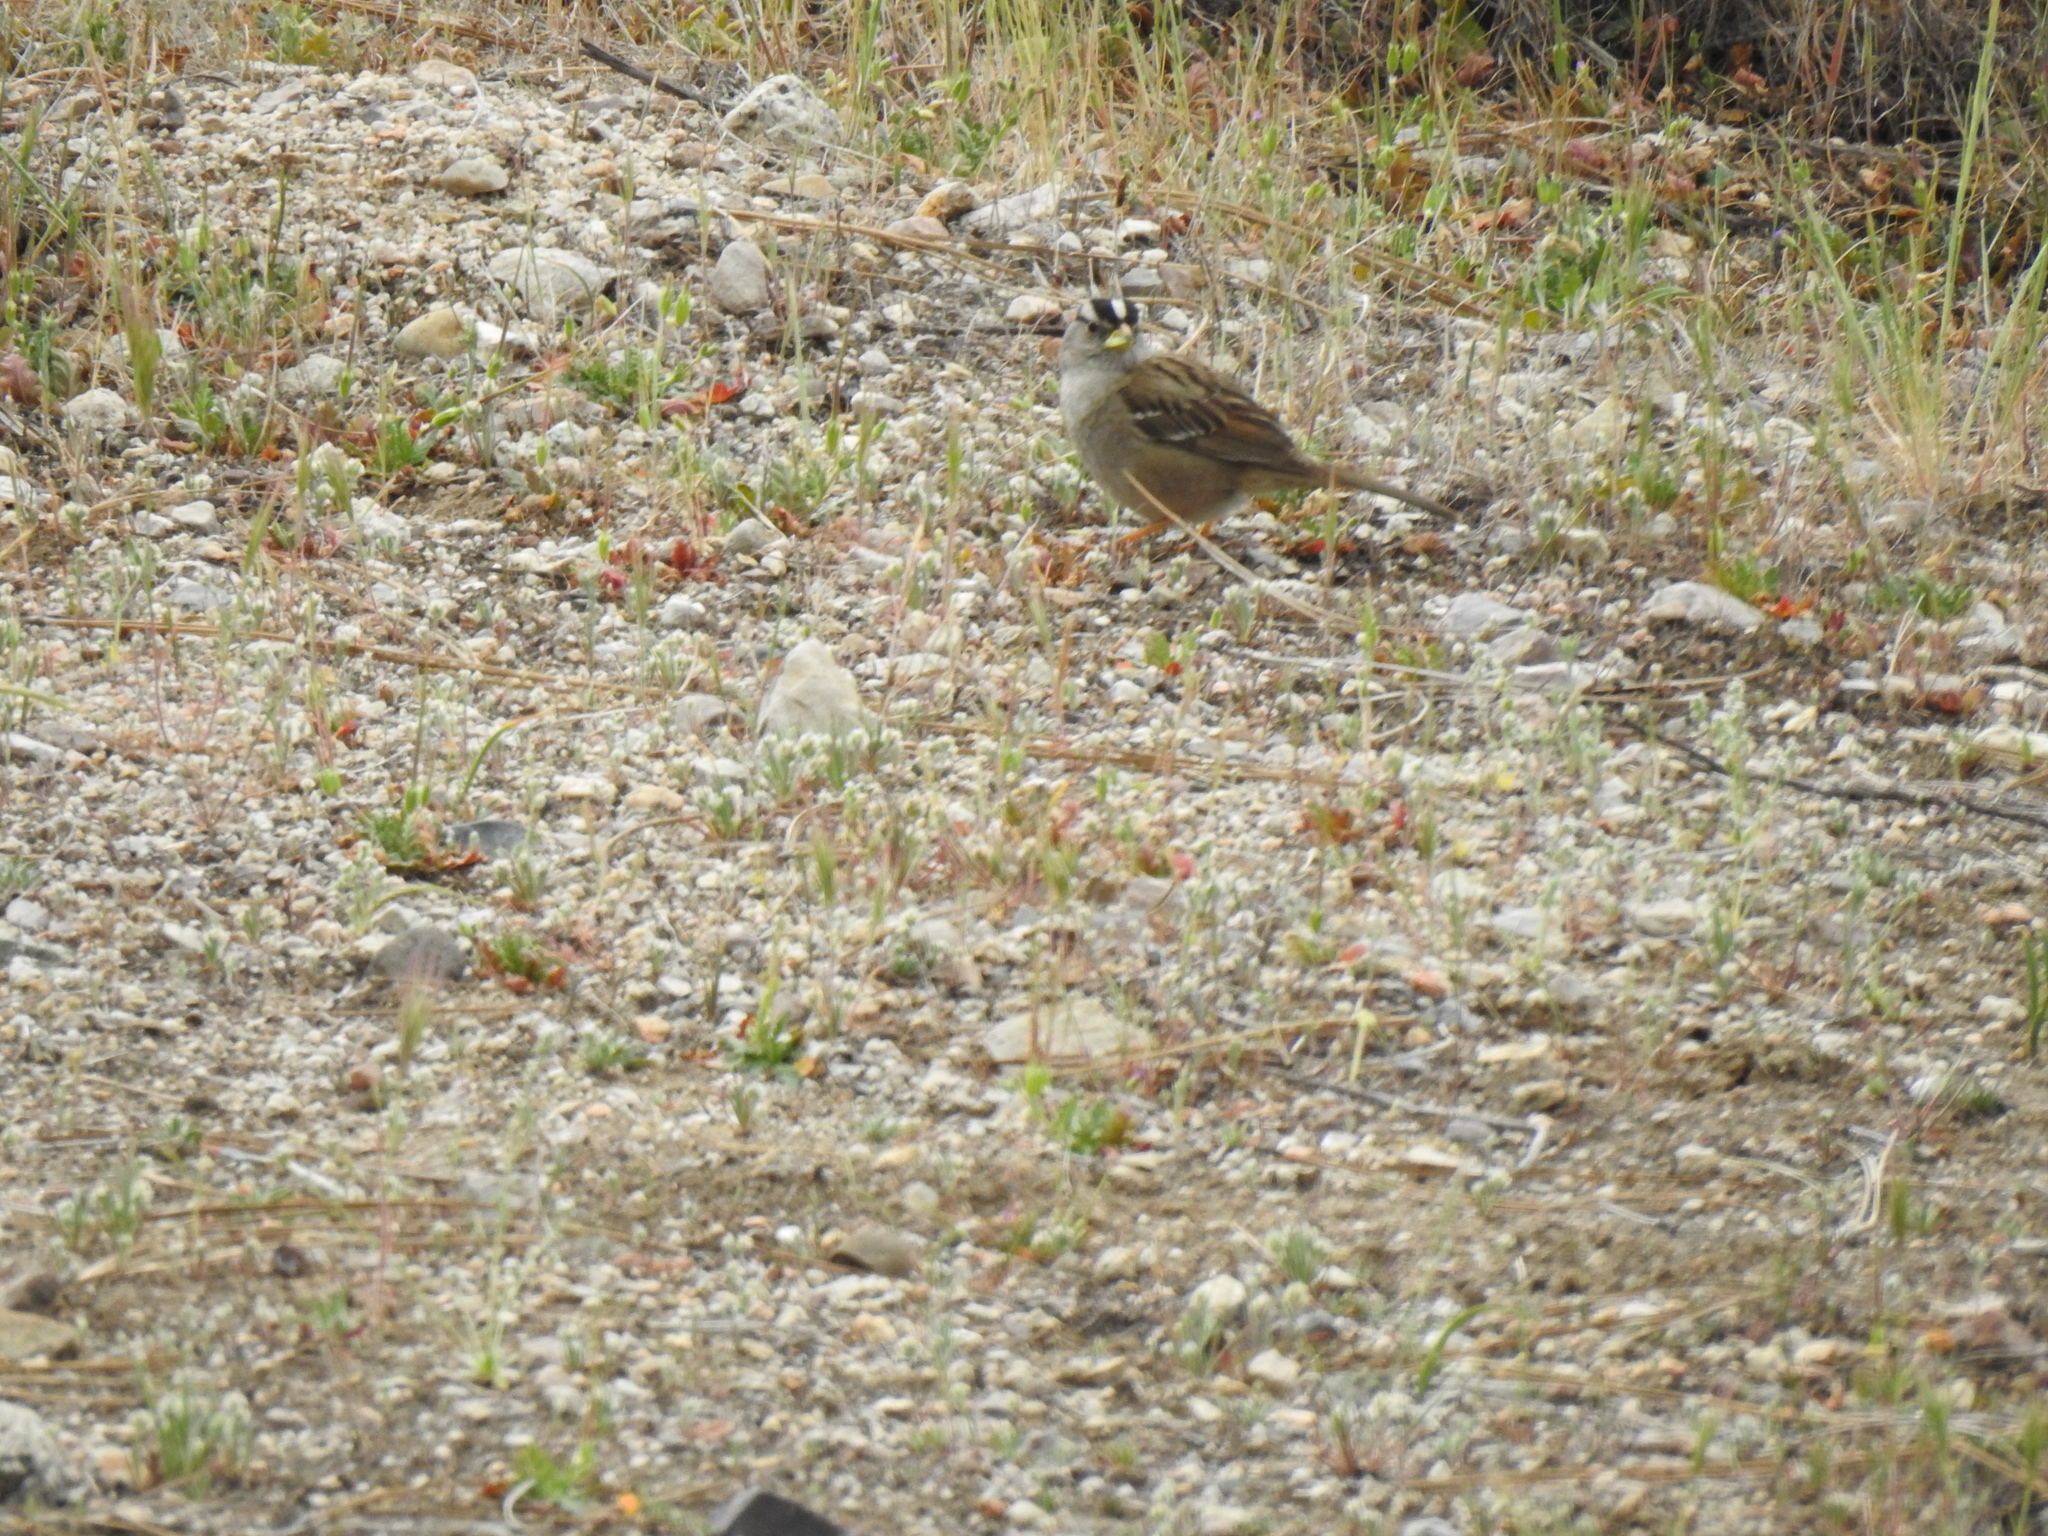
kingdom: Animalia
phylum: Chordata
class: Aves
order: Passeriformes
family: Passerellidae
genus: Zonotrichia
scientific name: Zonotrichia leucophrys
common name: White-crowned sparrow
